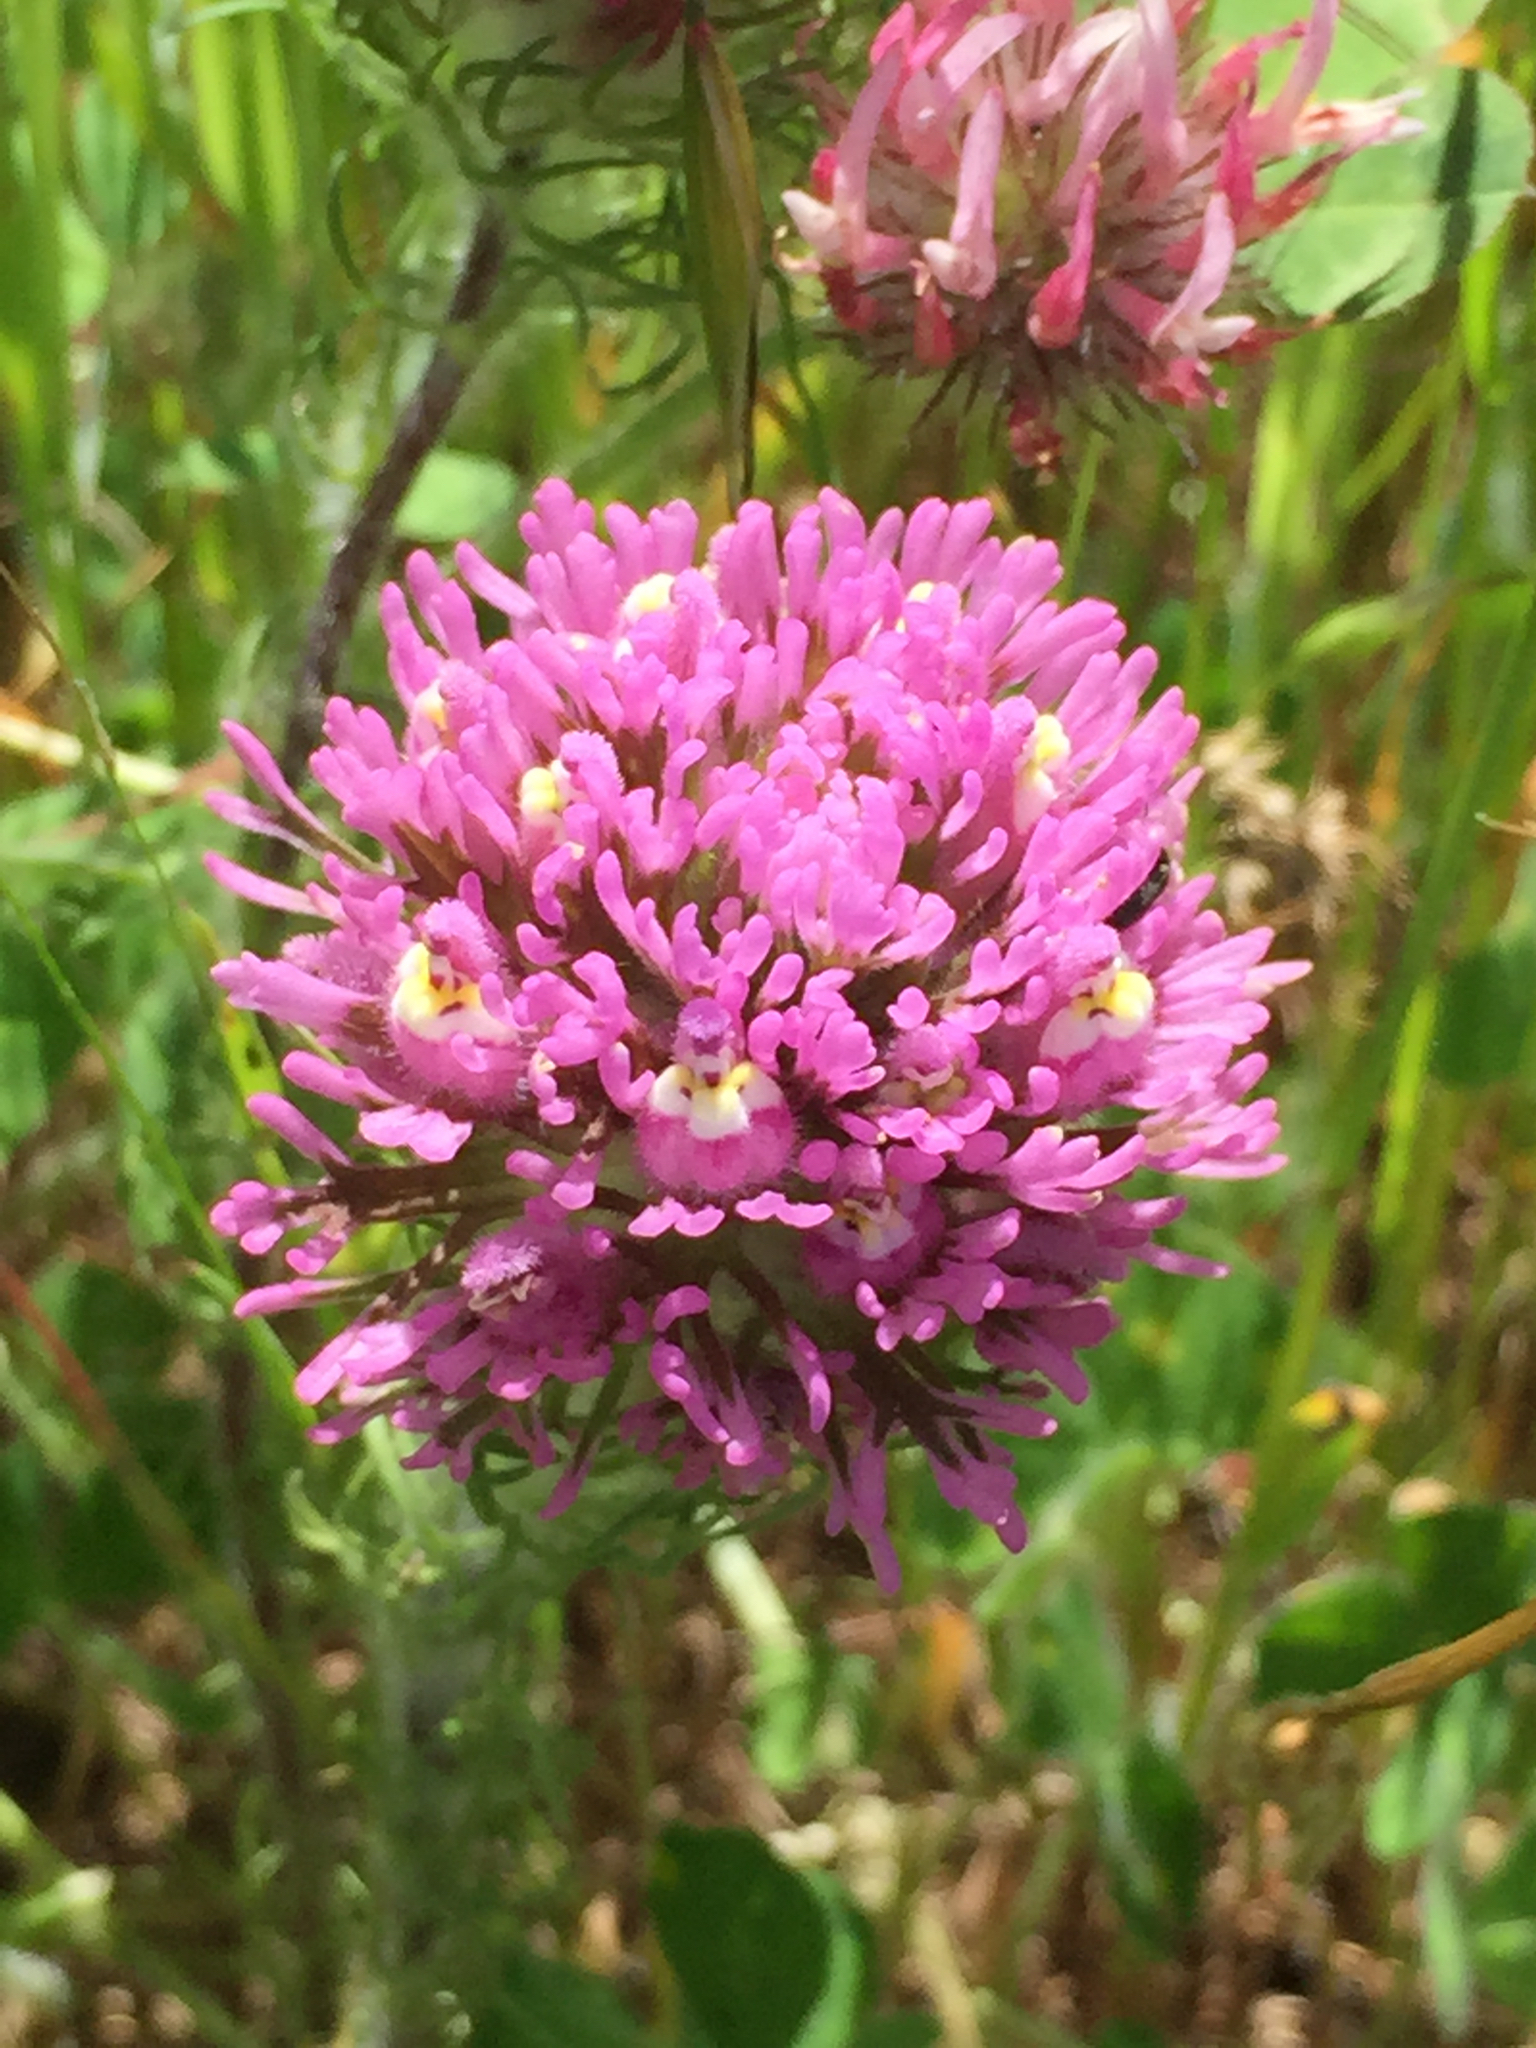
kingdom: Plantae
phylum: Tracheophyta
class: Magnoliopsida
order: Lamiales
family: Orobanchaceae
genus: Castilleja
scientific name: Castilleja exserta
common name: Purple owl-clover
